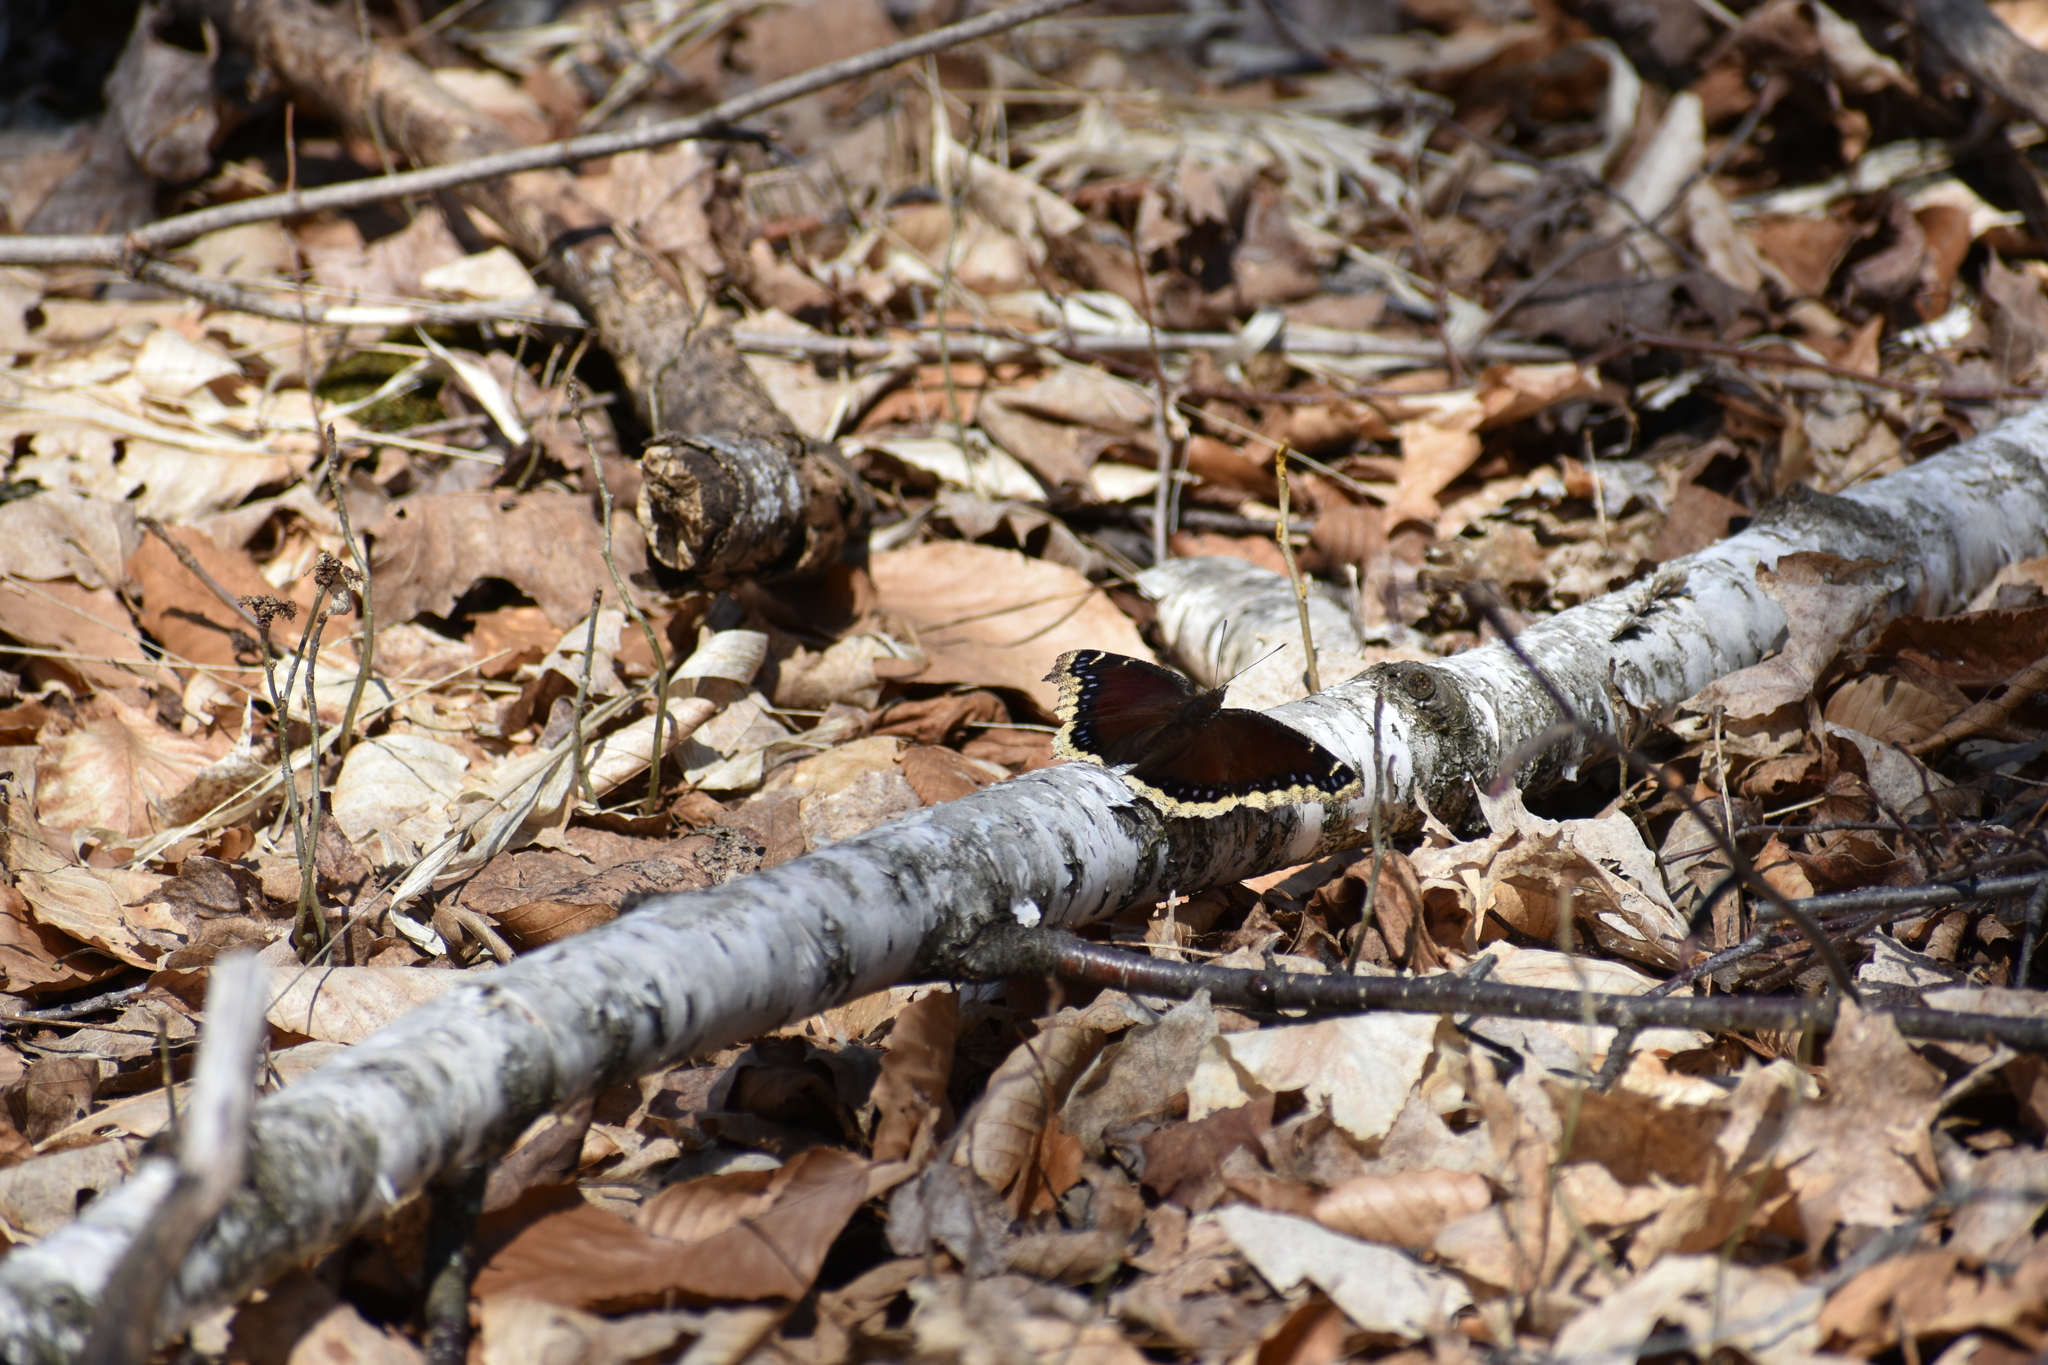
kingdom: Animalia
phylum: Arthropoda
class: Insecta
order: Lepidoptera
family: Nymphalidae
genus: Nymphalis
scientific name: Nymphalis antiopa
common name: Camberwell beauty
